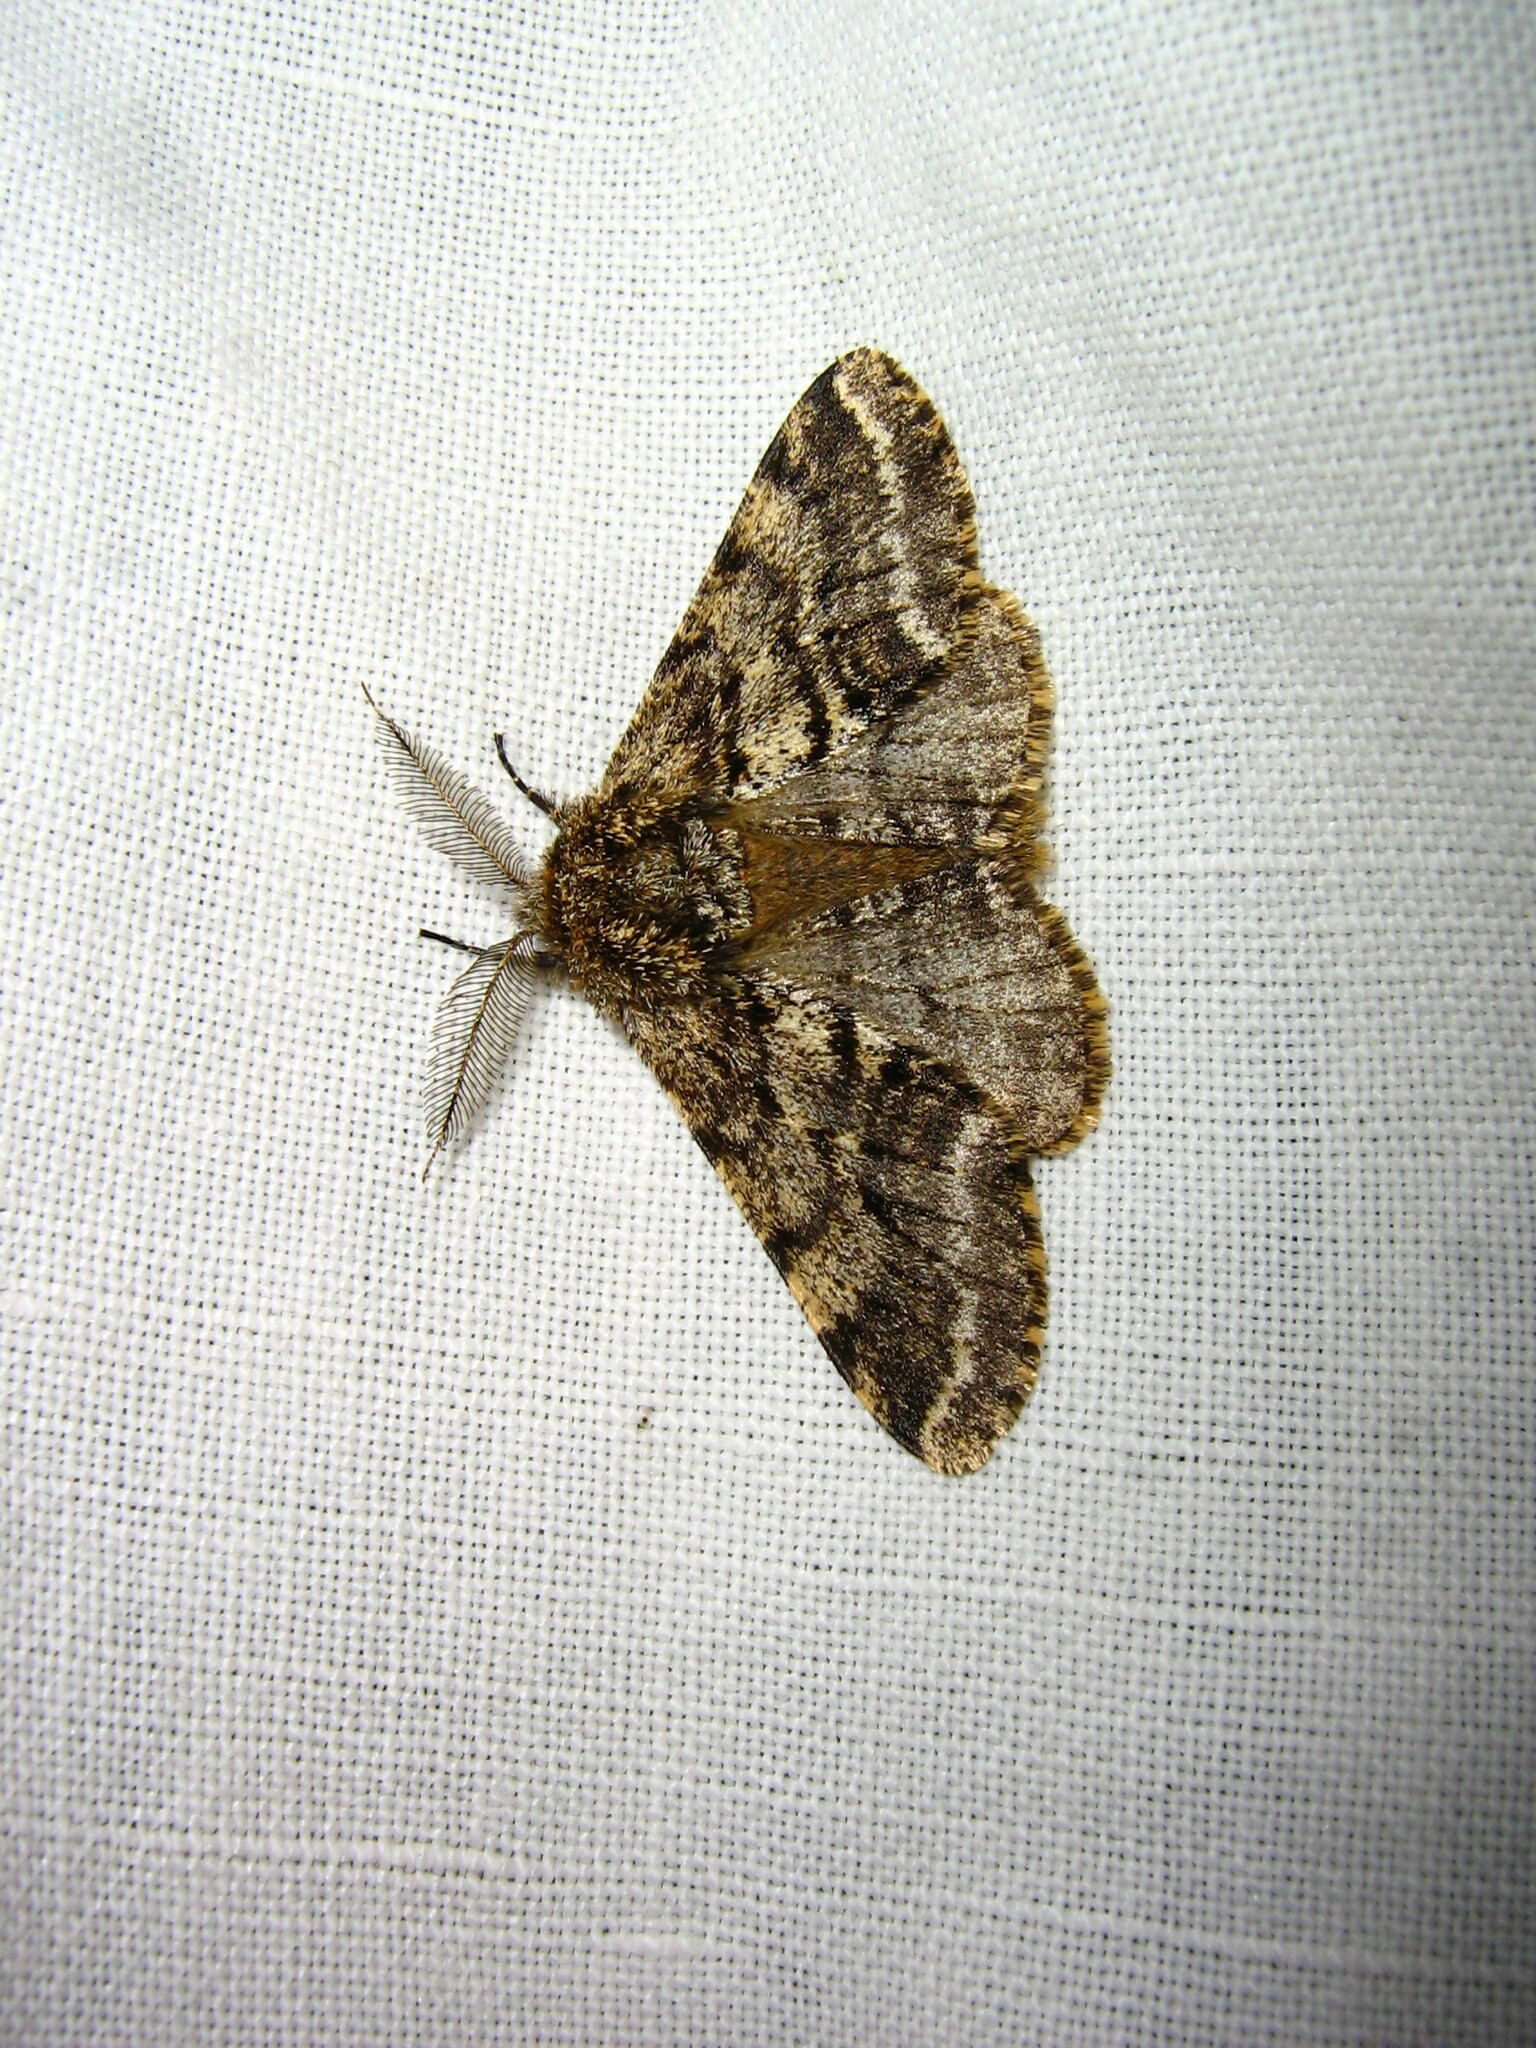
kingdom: Animalia
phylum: Arthropoda
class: Insecta
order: Lepidoptera
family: Geometridae
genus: Lycia
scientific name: Lycia hirtaria
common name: Brindled beauty
